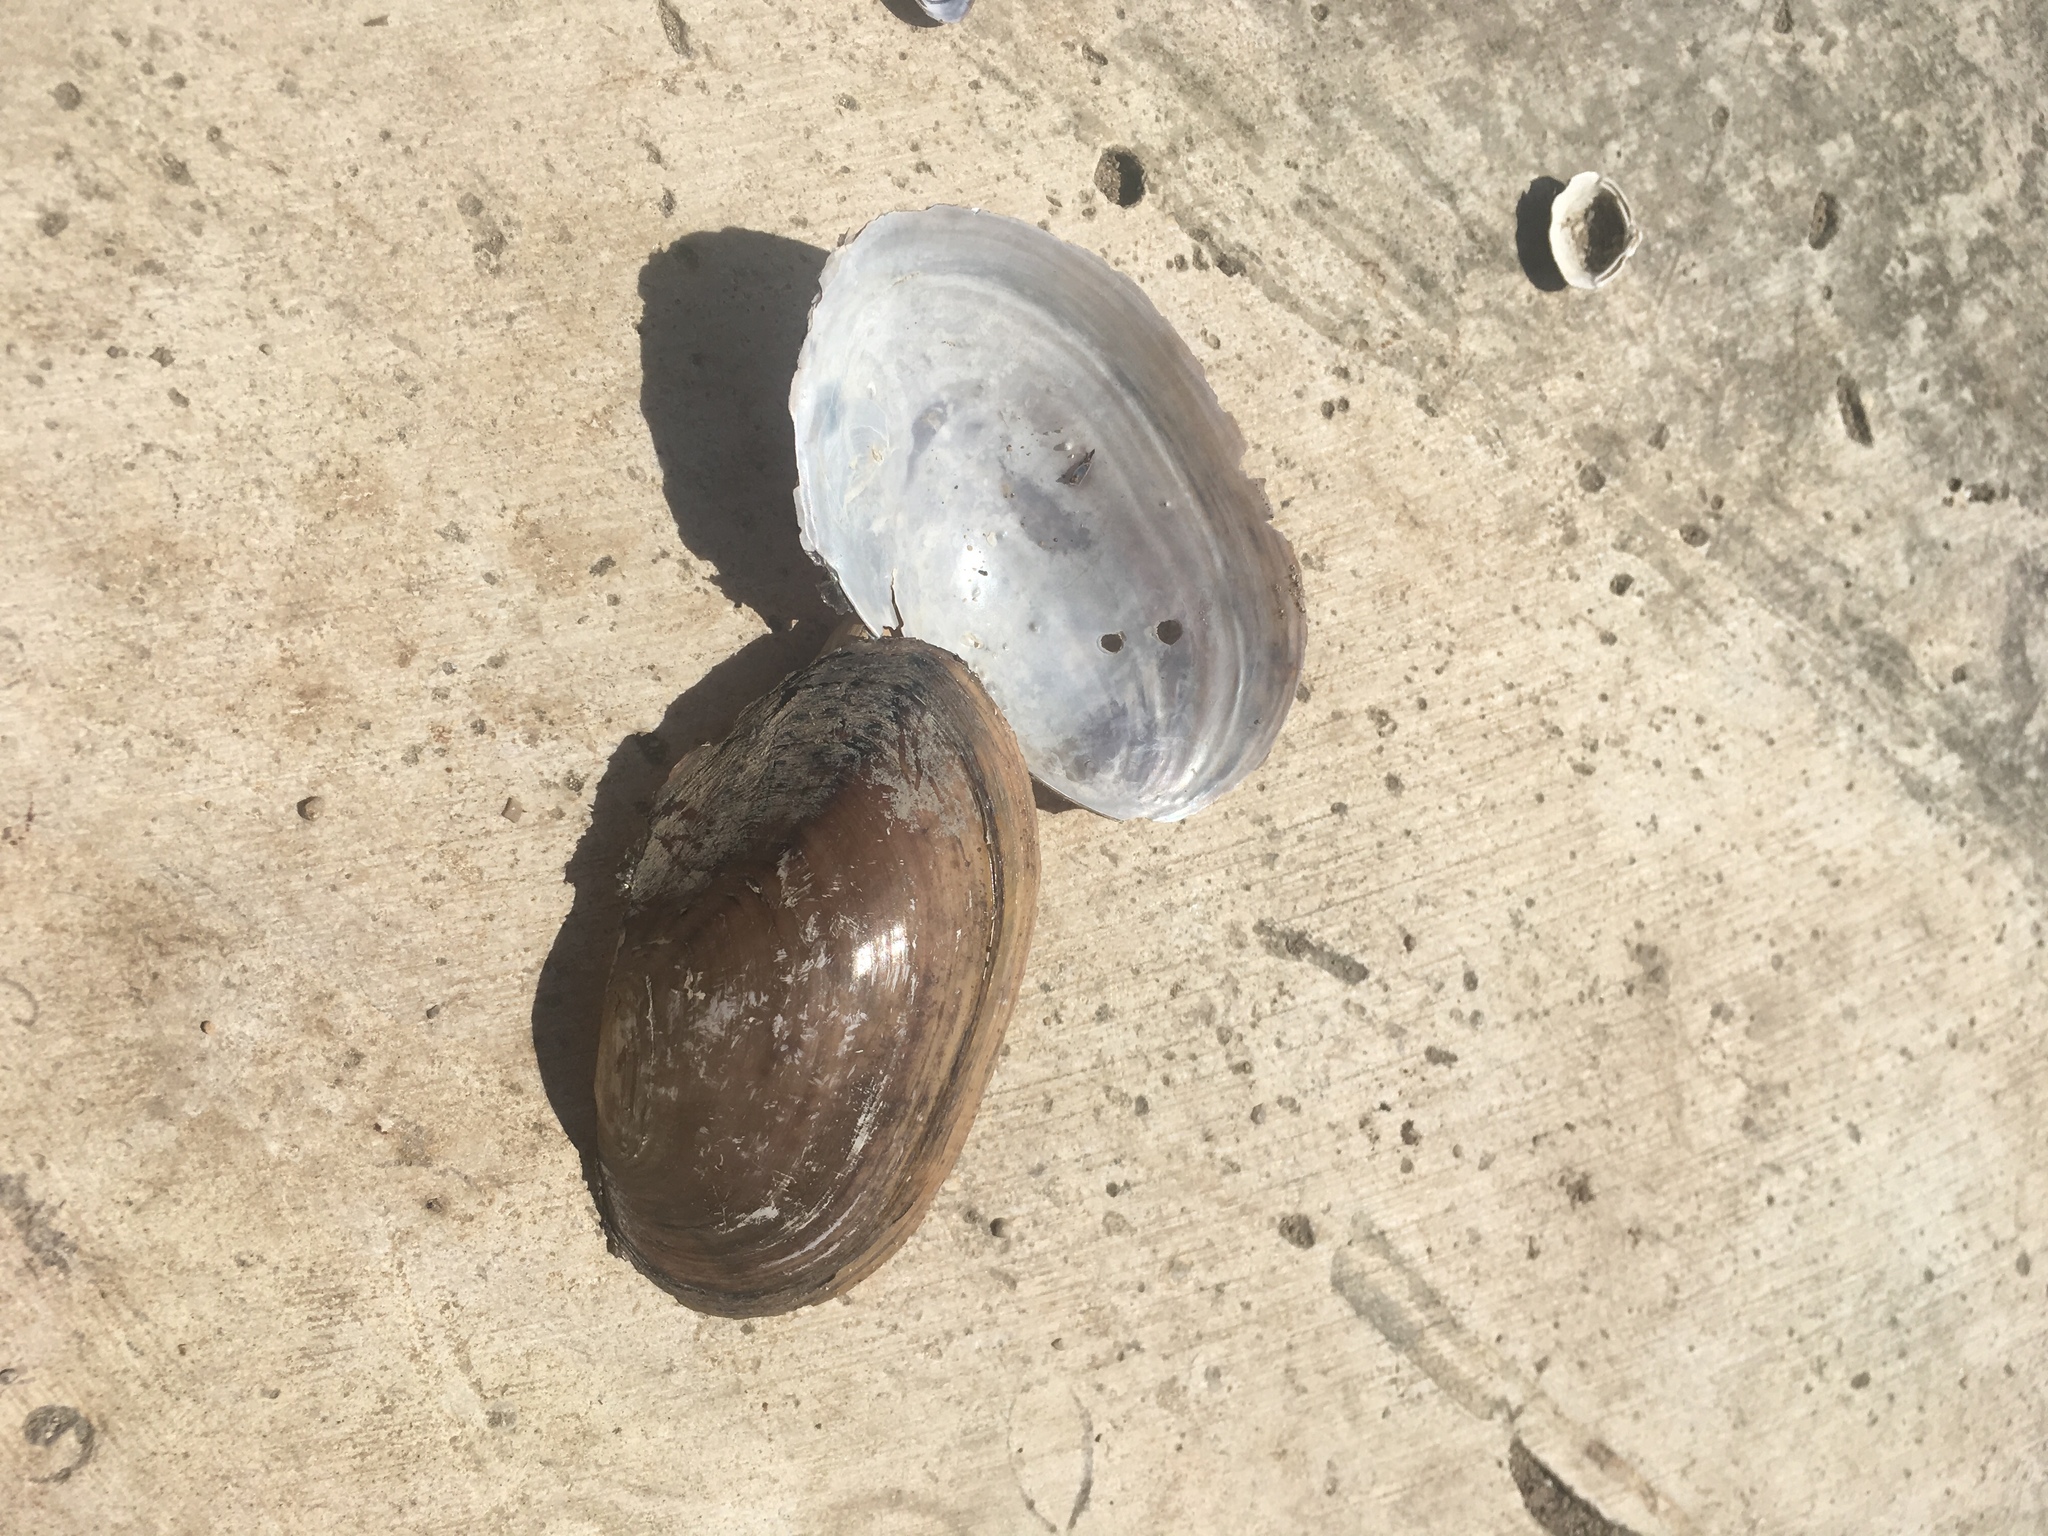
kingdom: Animalia
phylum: Mollusca
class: Bivalvia
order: Unionida
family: Unionidae
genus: Utterbackia
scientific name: Utterbackia imbecillis
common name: Paper pondshell
